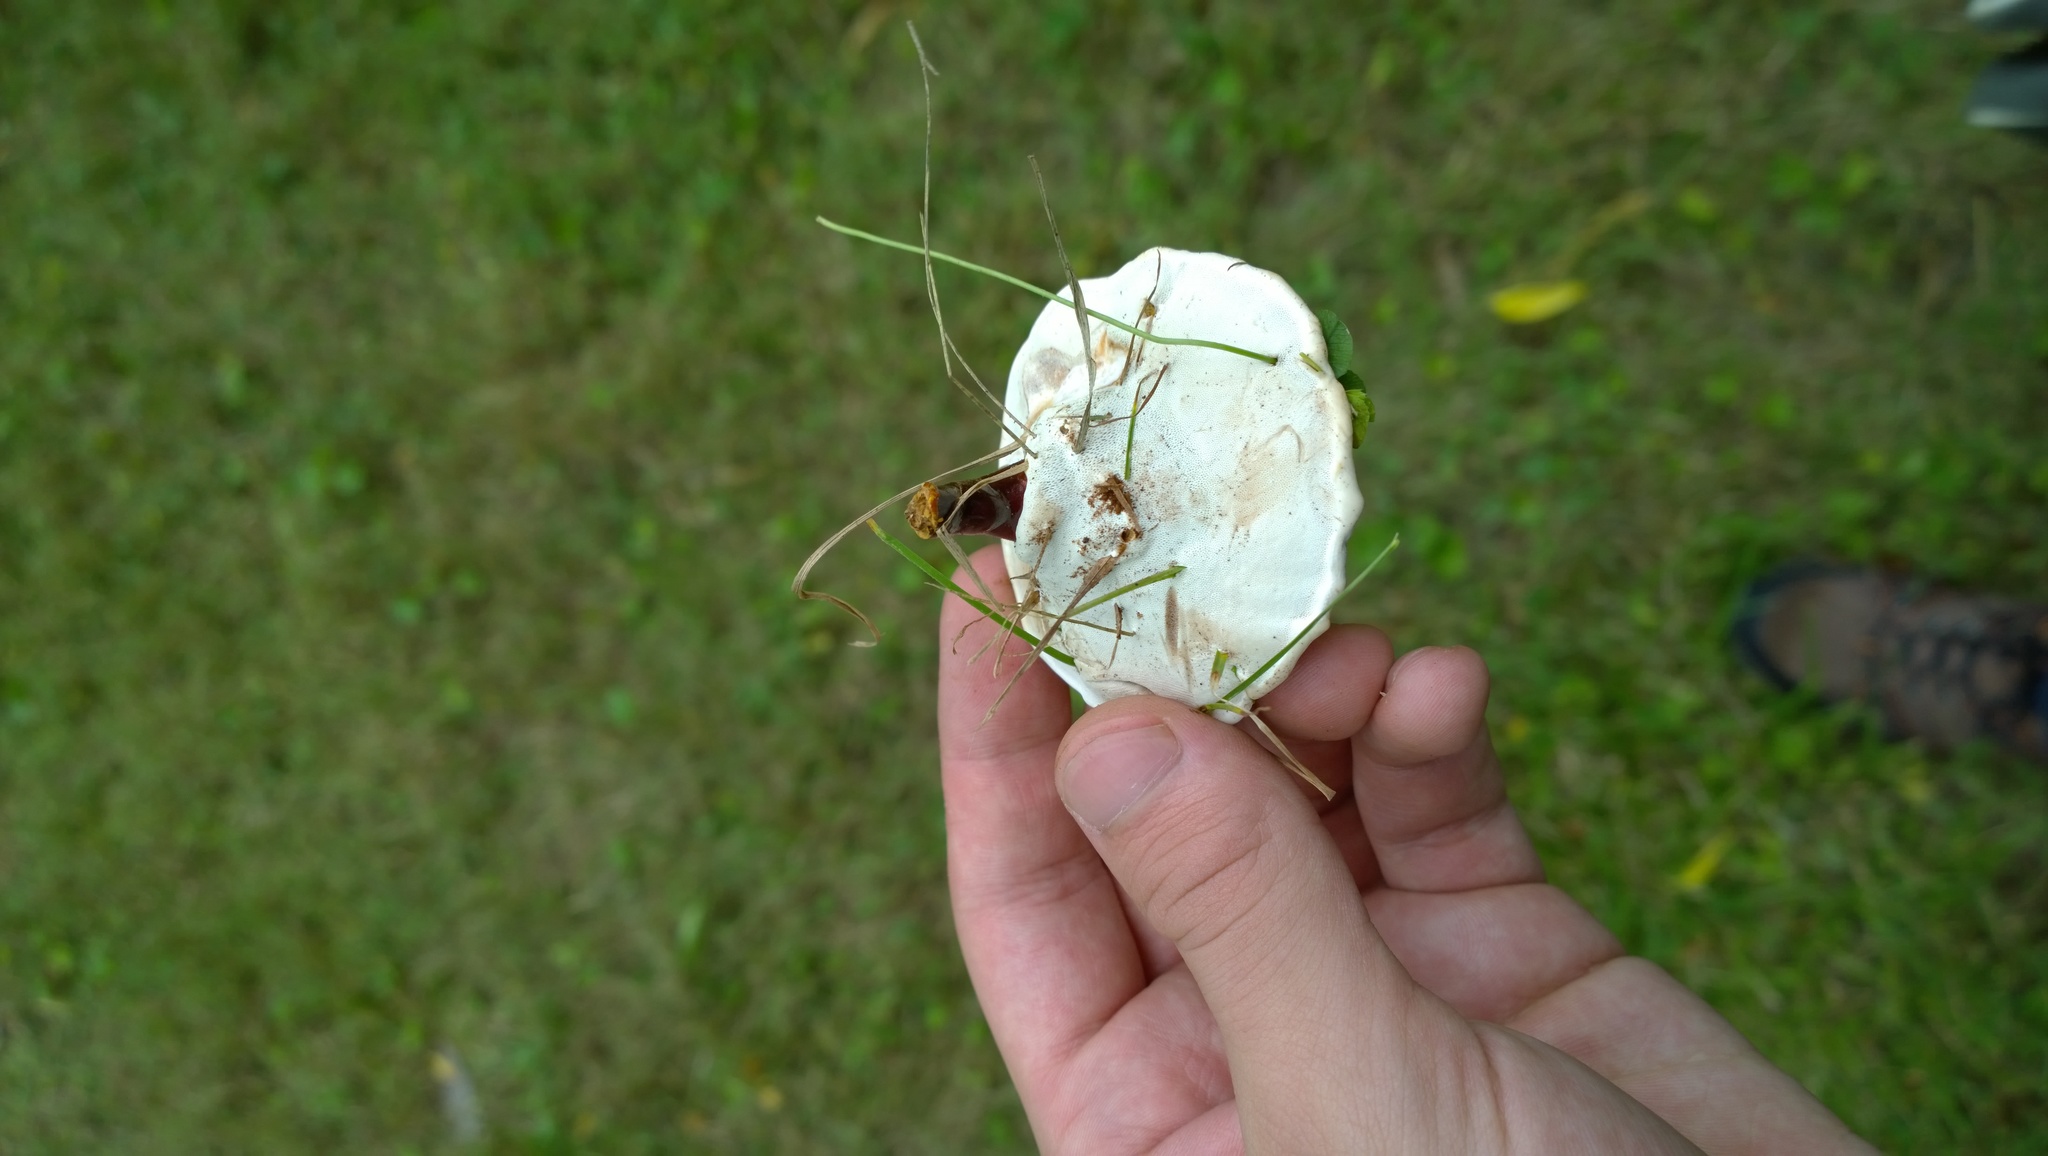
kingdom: Fungi
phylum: Basidiomycota
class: Agaricomycetes
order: Polyporales
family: Polyporaceae
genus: Ganoderma
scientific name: Ganoderma curtisii
